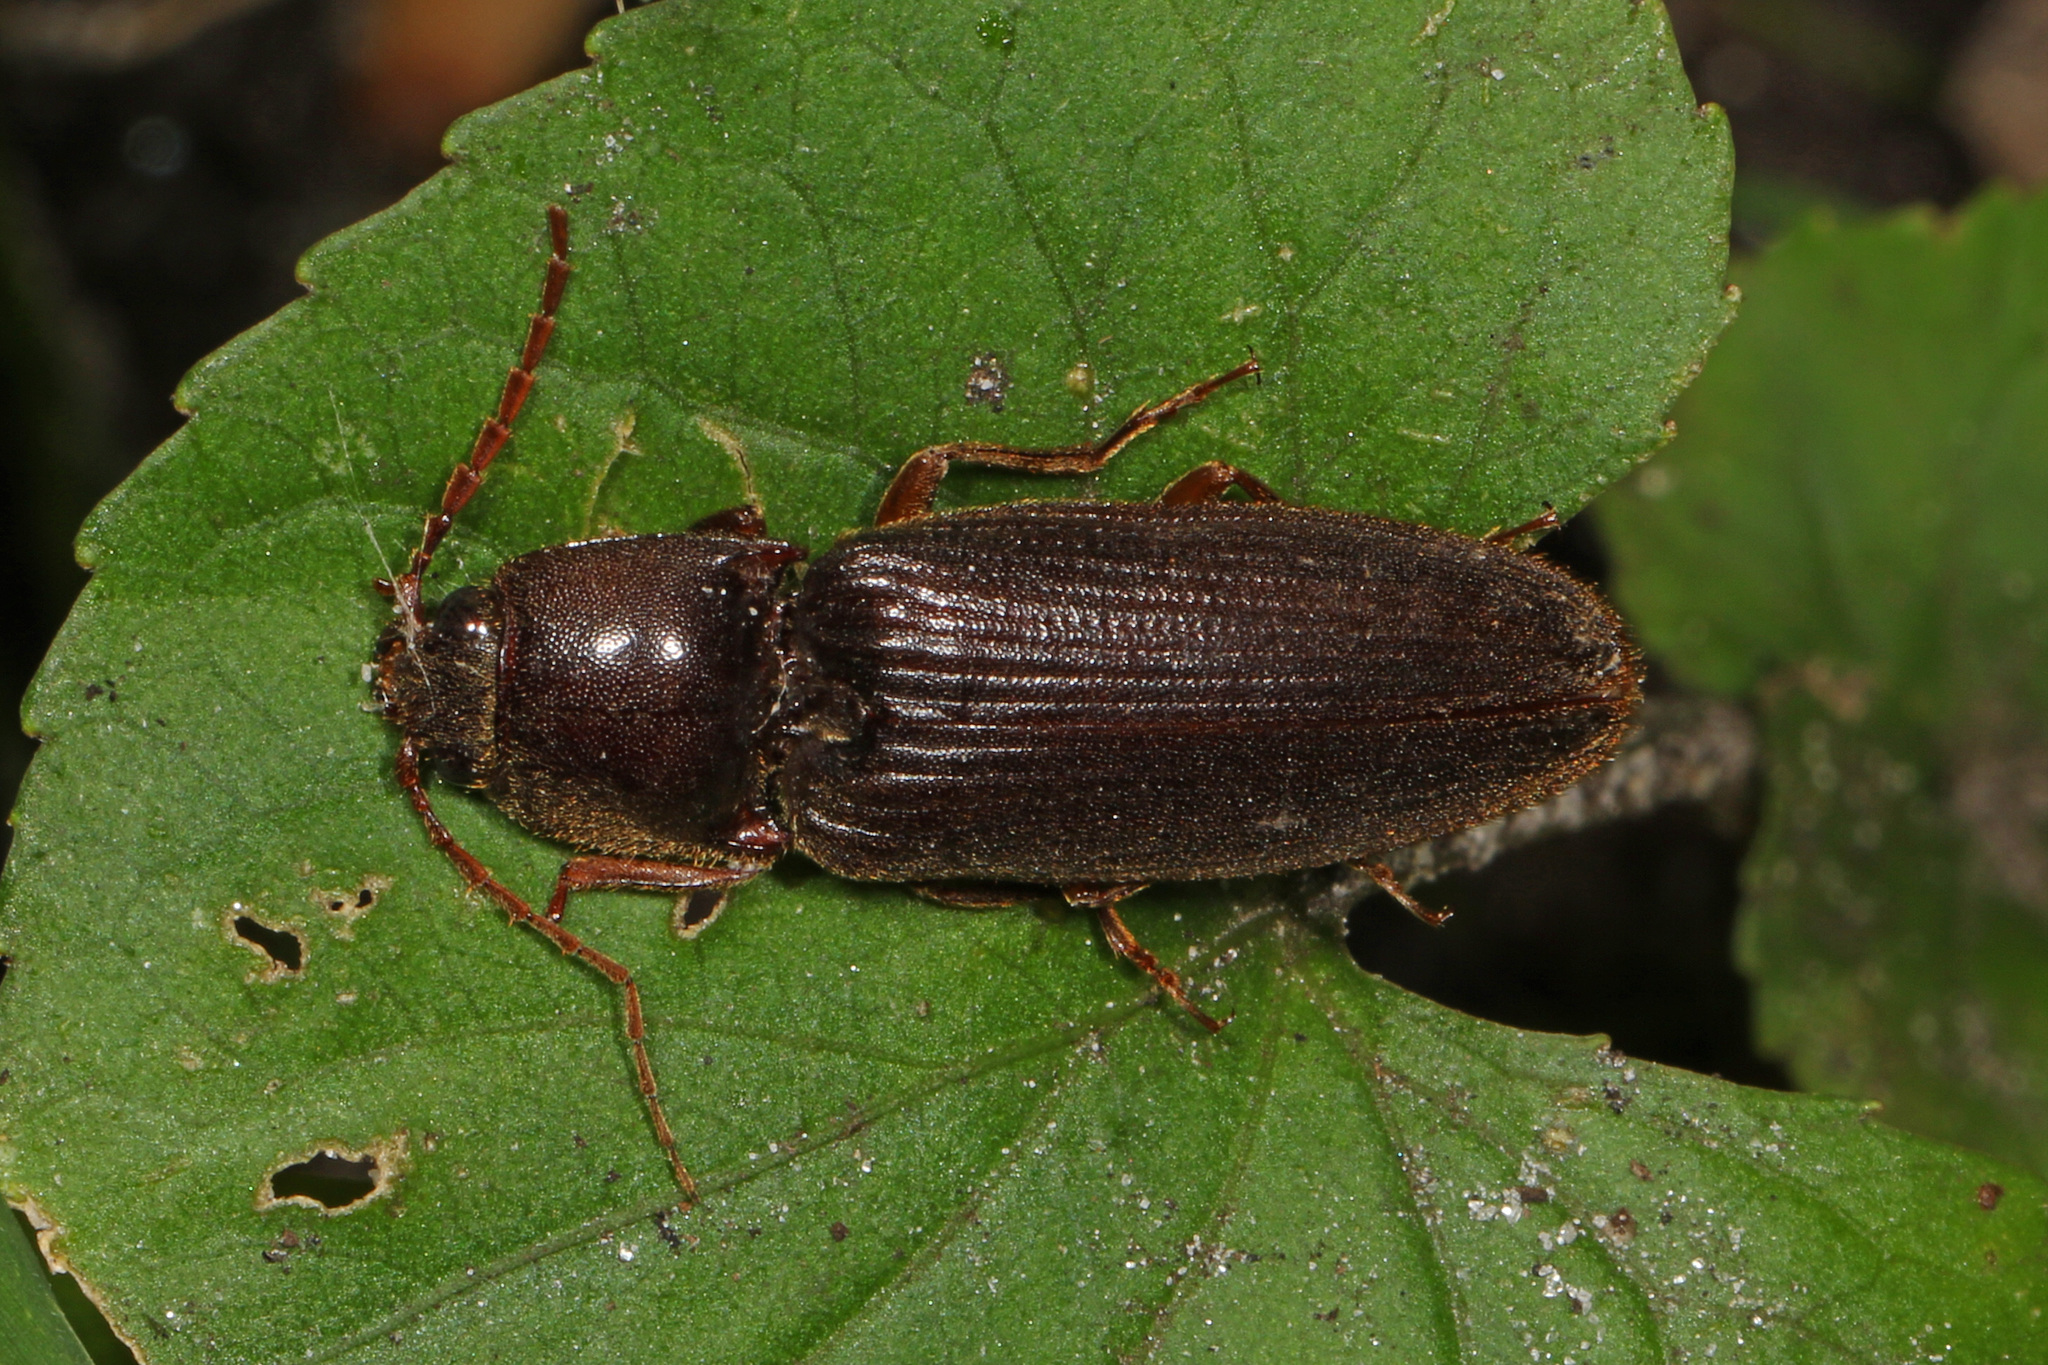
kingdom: Animalia
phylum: Arthropoda
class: Insecta
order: Coleoptera
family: Elateridae
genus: Hemicrepidius
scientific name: Hemicrepidius
